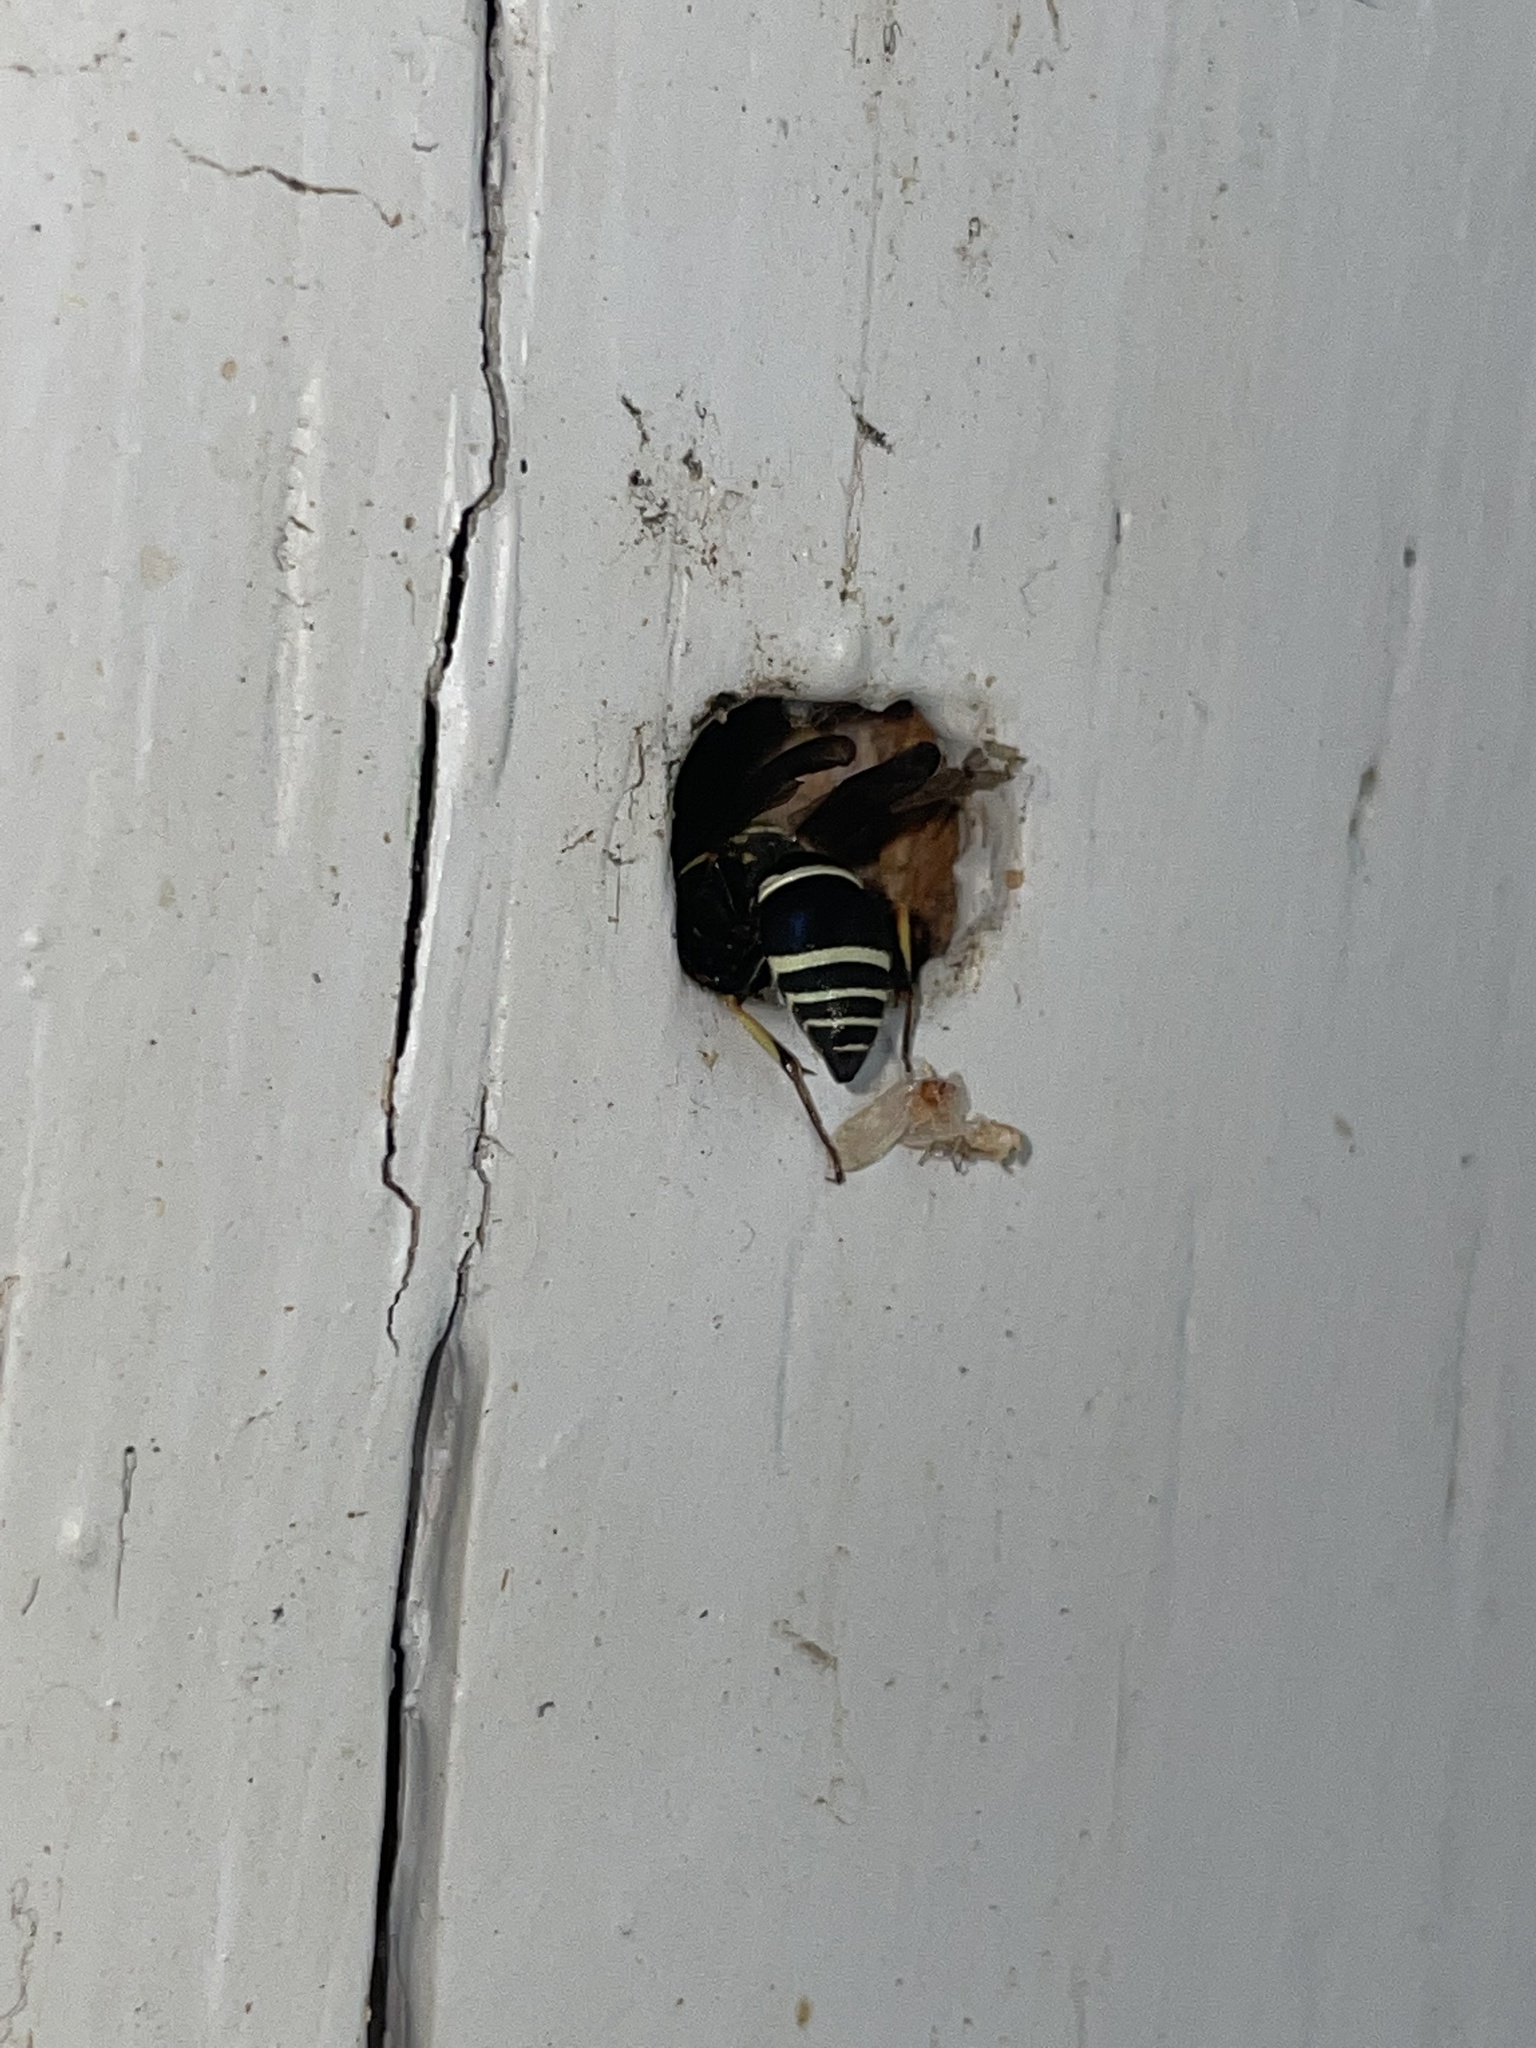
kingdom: Animalia
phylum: Arthropoda
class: Insecta
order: Hymenoptera
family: Vespidae
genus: Ancistrocerus
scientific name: Ancistrocerus catskill
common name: Vespid wasp
